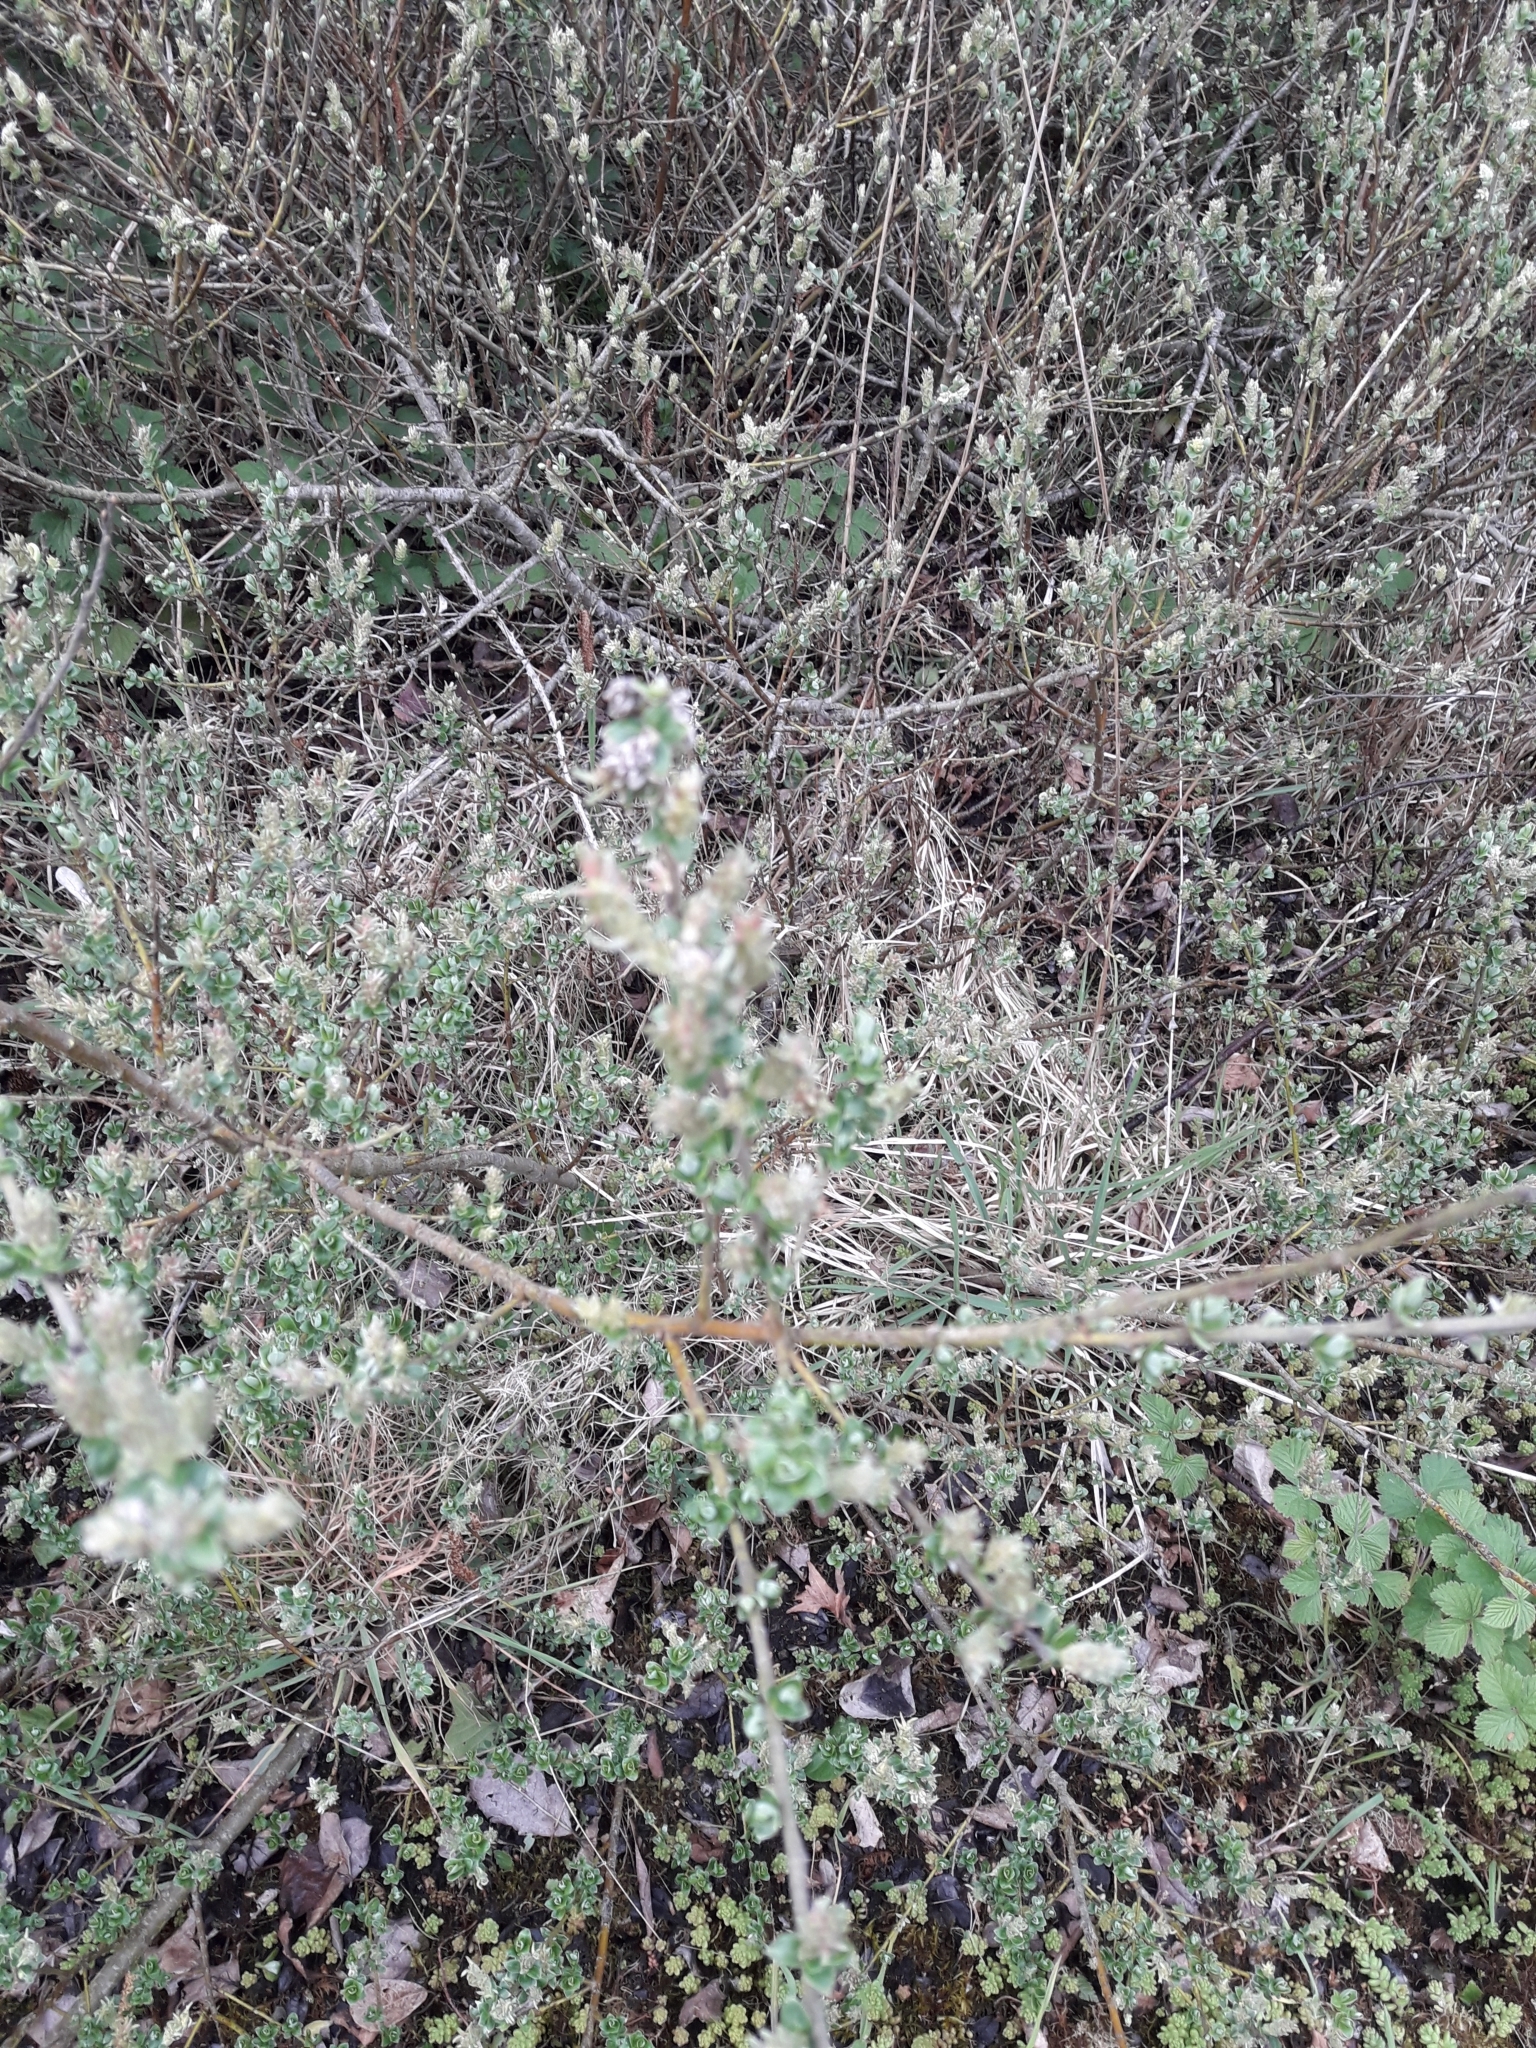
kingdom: Plantae
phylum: Tracheophyta
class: Magnoliopsida
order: Malpighiales
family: Salicaceae
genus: Salix
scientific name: Salix repens
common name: Creeping willow
